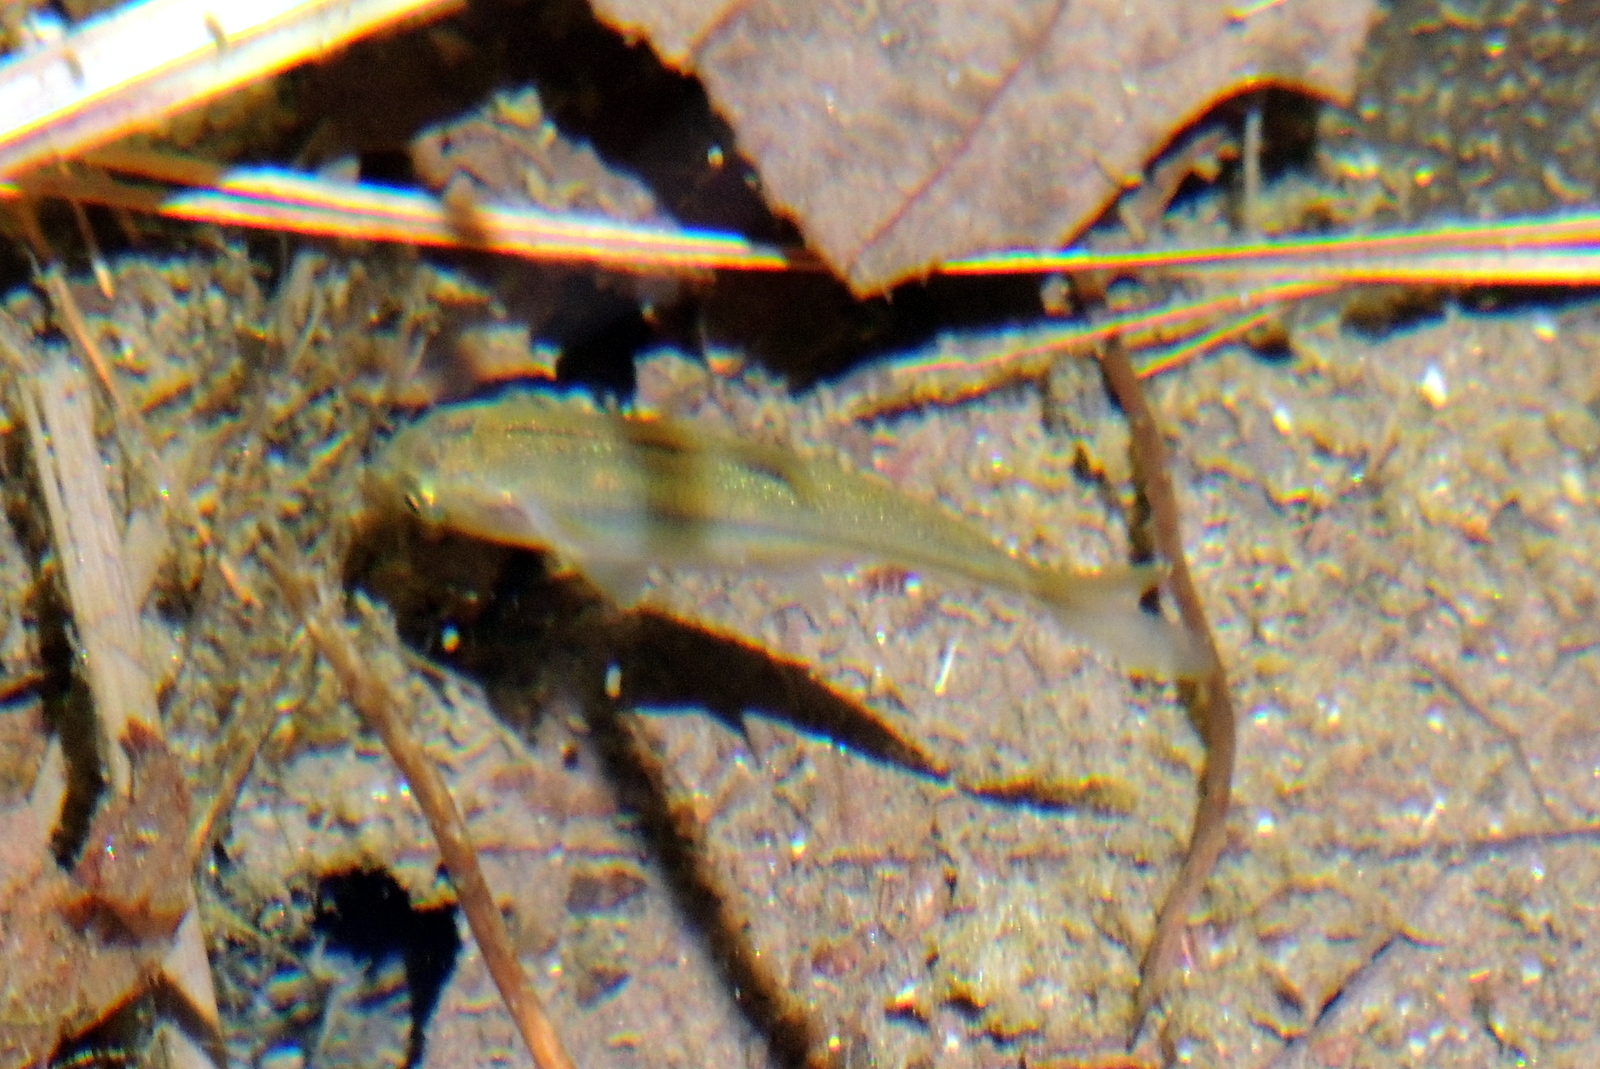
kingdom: Animalia
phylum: Chordata
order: Cypriniformes
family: Cyprinidae
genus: Gila
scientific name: Gila orcuttii
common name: Arroyo chub
